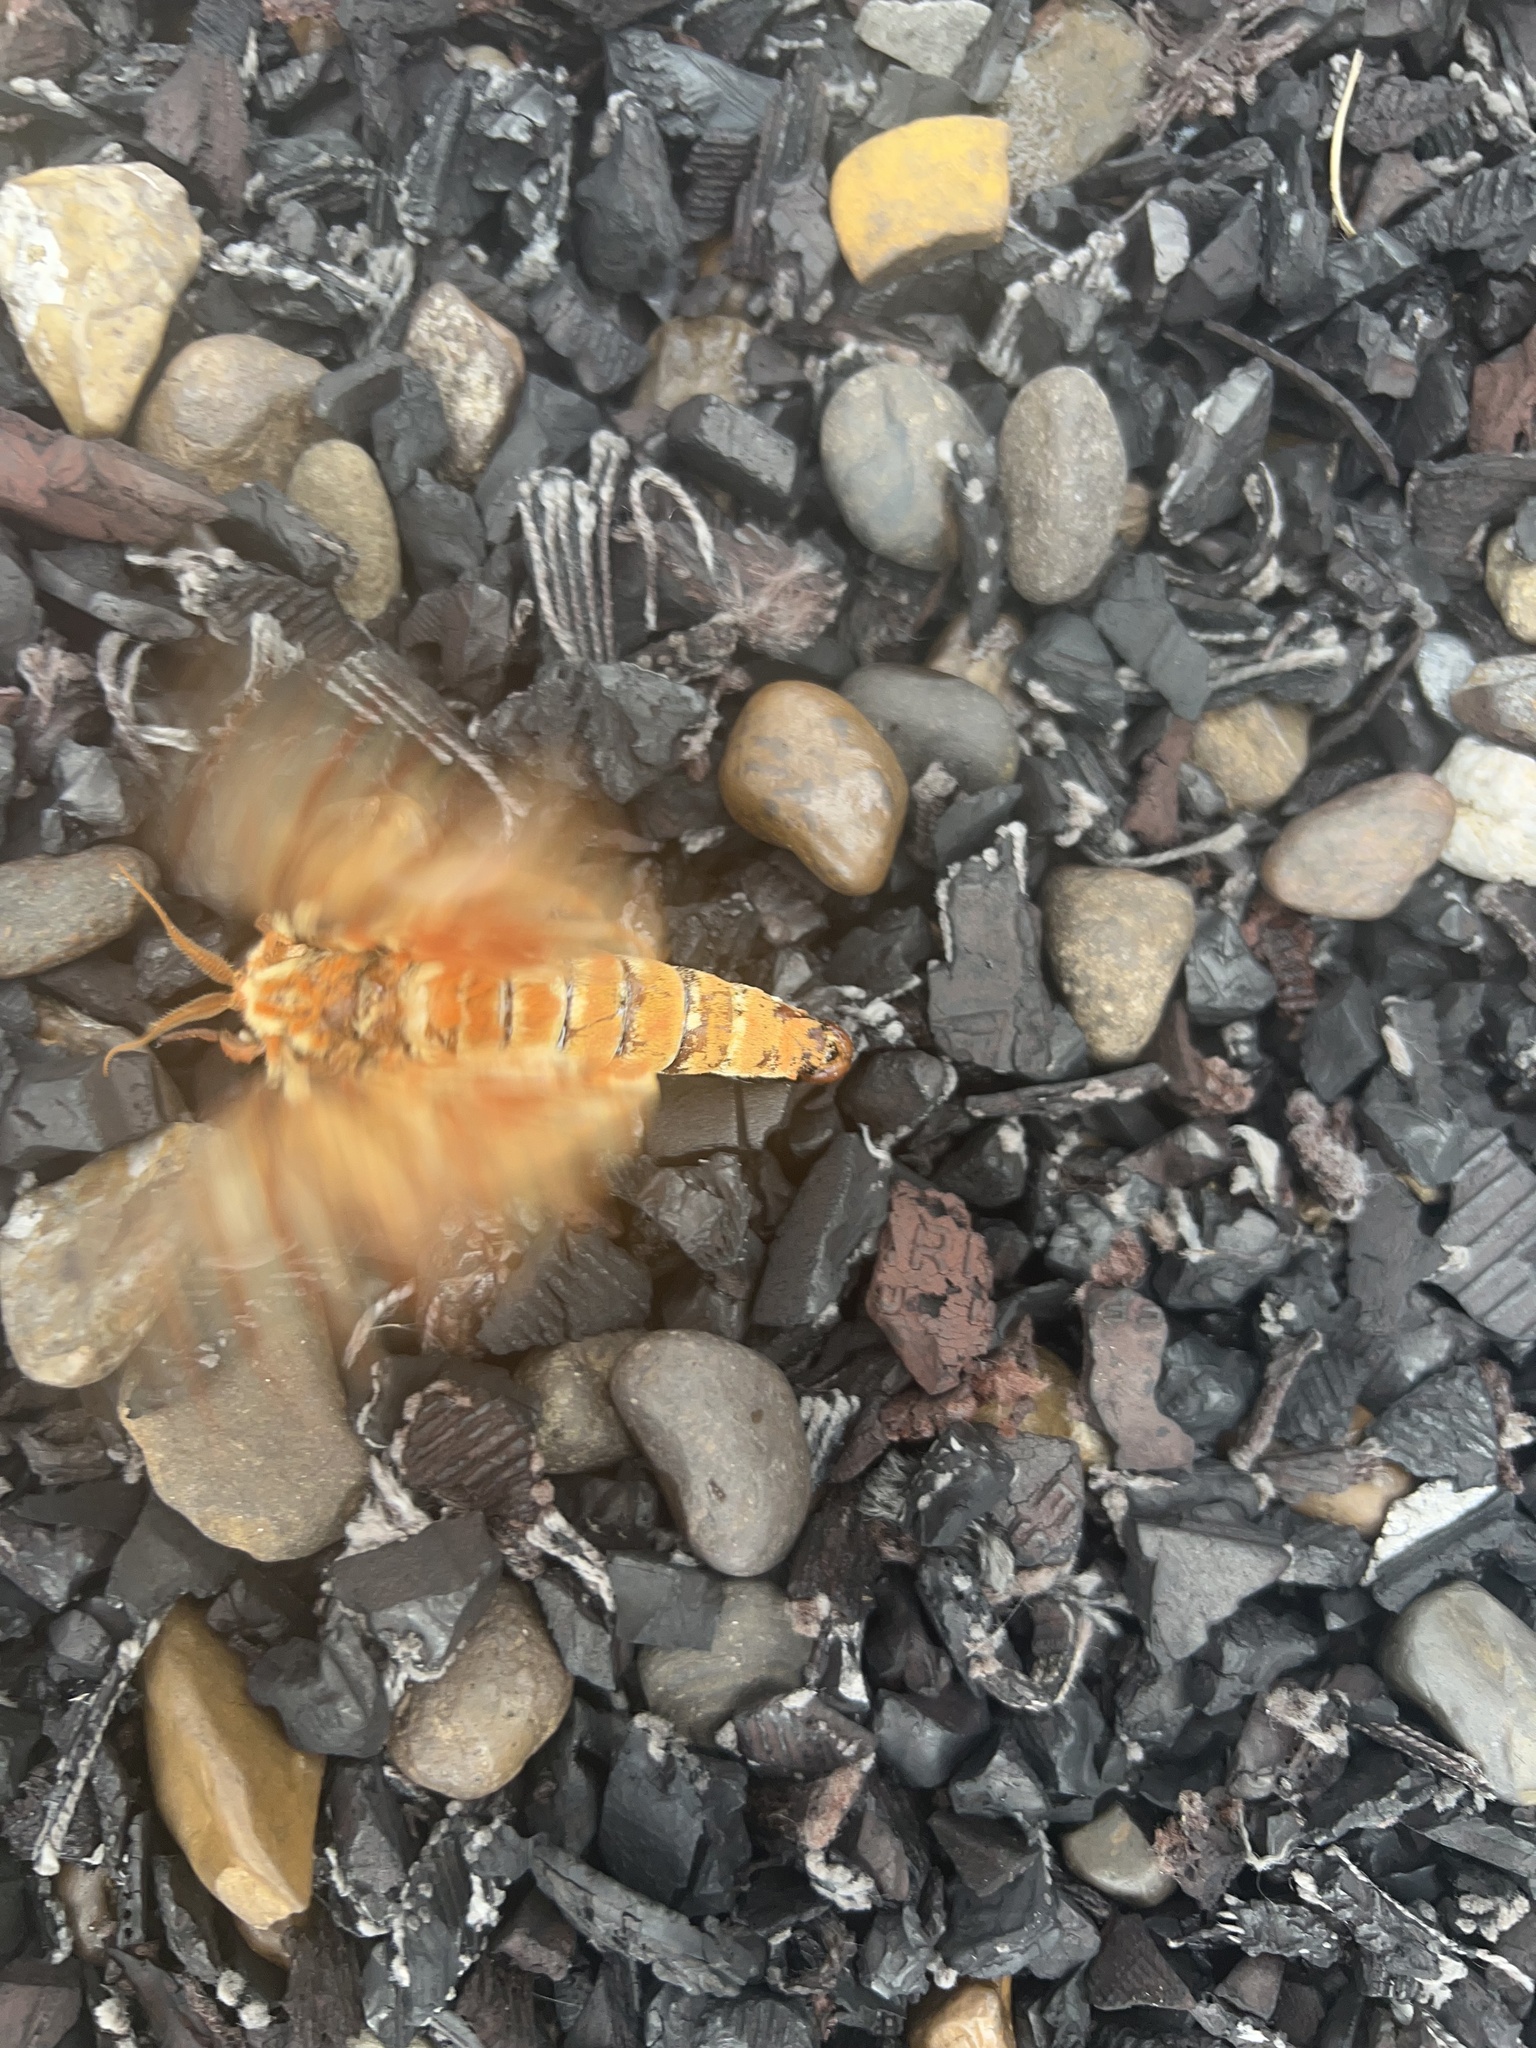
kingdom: Animalia
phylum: Arthropoda
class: Insecta
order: Lepidoptera
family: Saturniidae
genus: Citheronia
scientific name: Citheronia regalis
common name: Hickory horned devil
